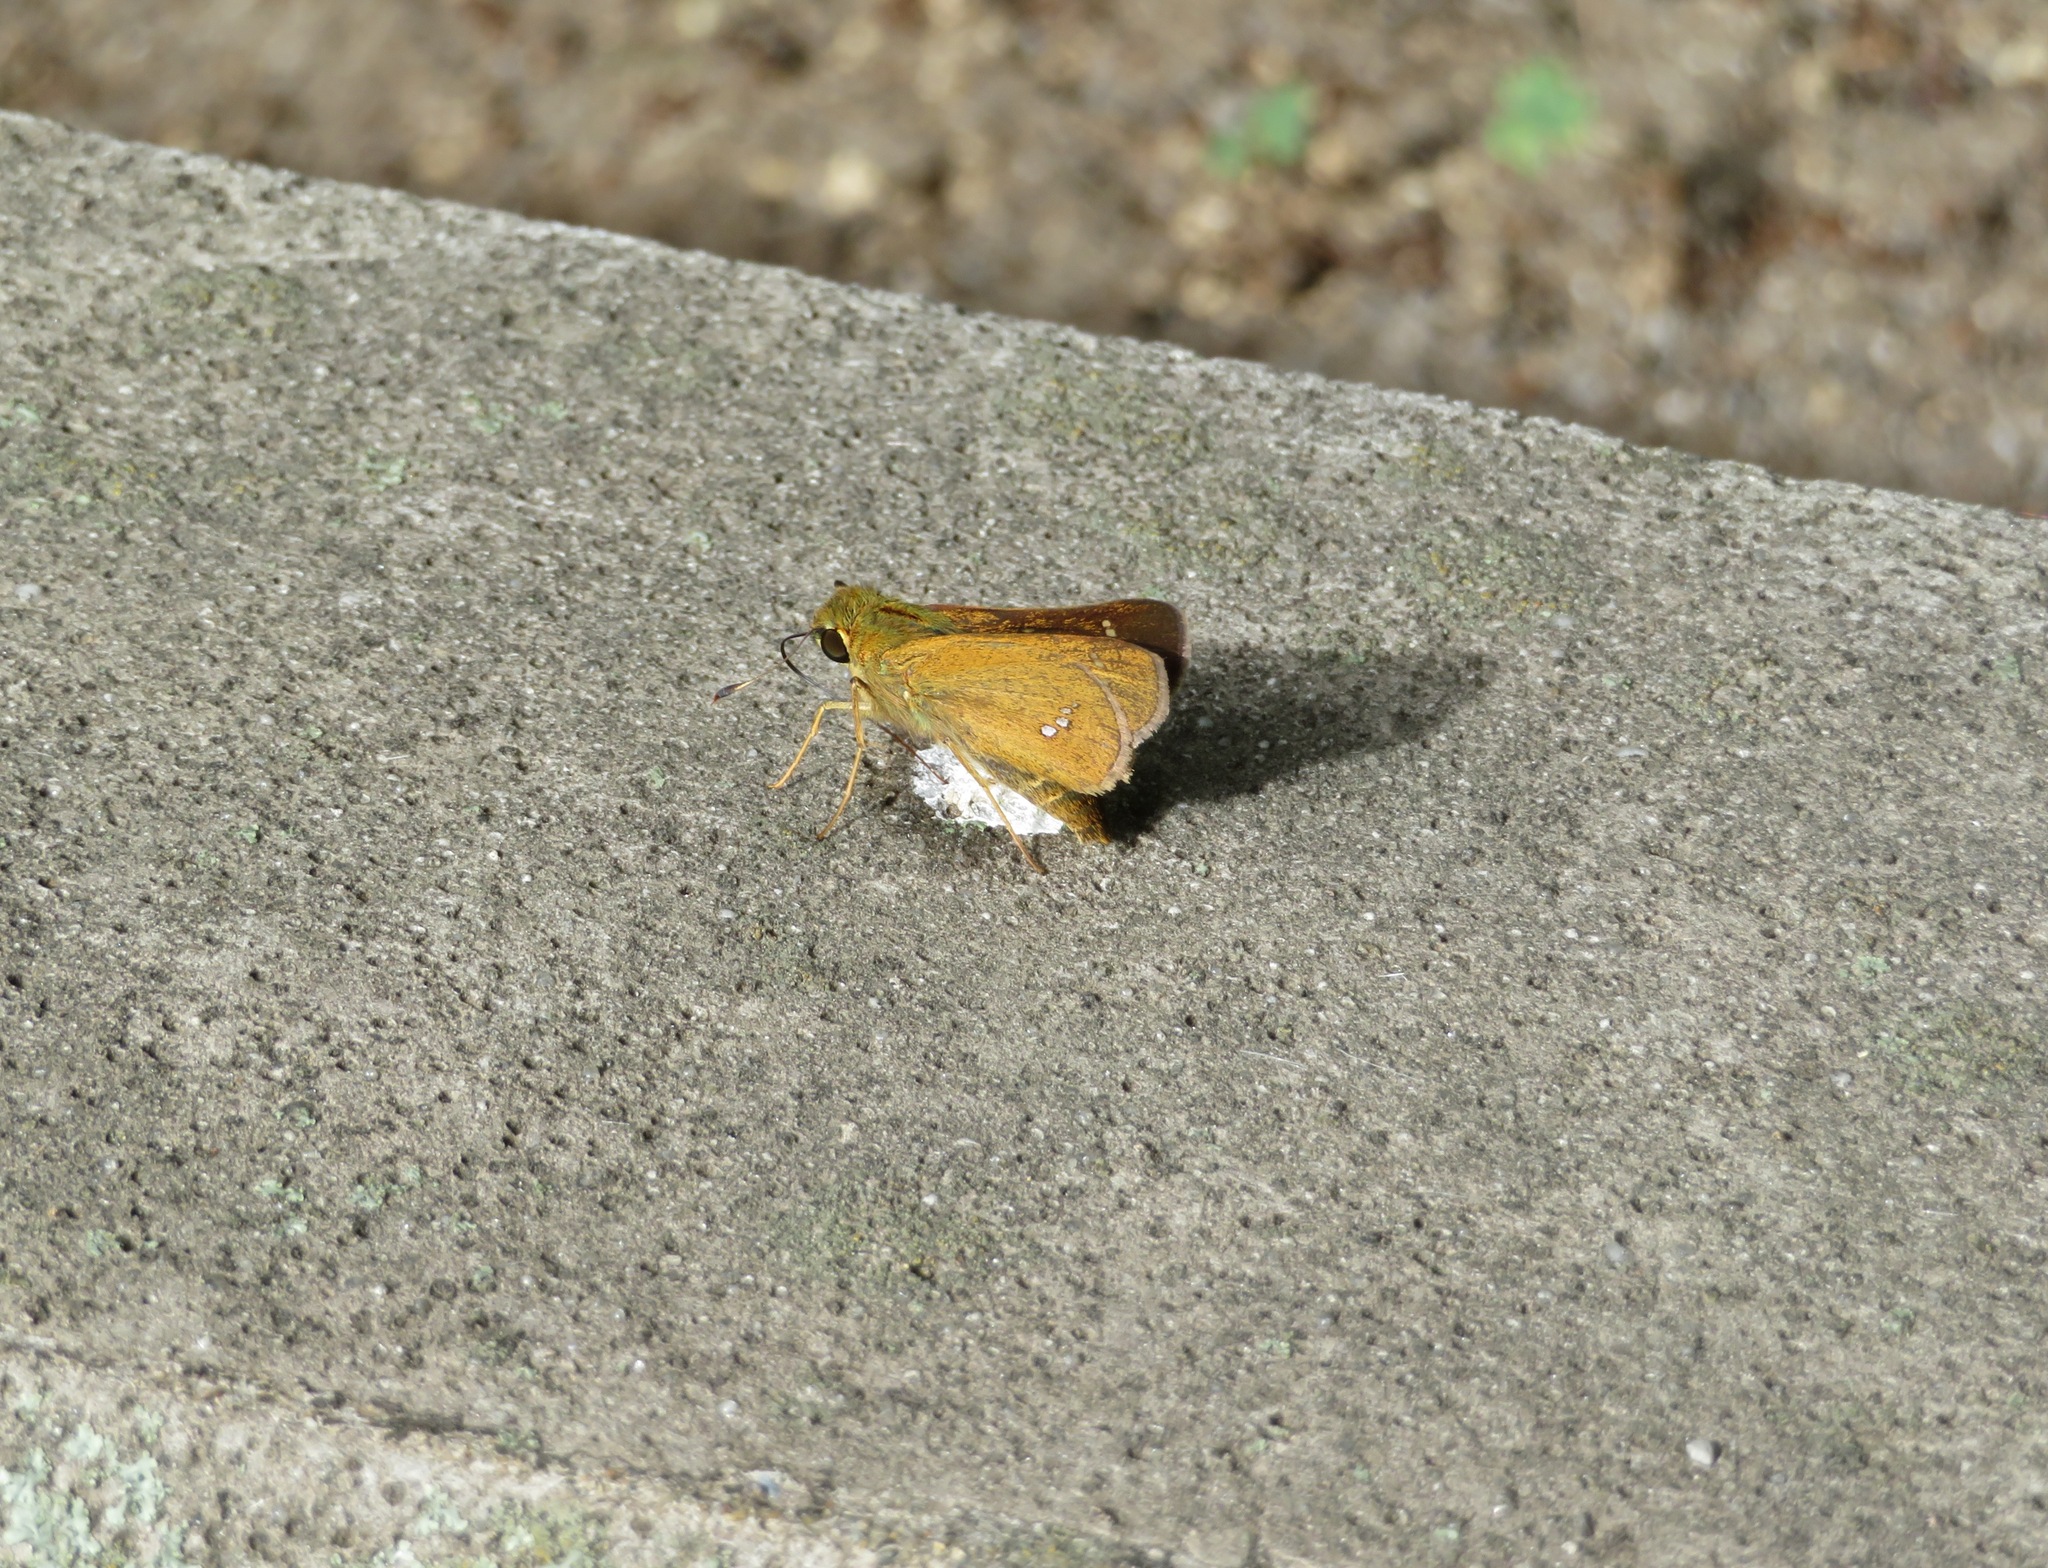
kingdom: Animalia
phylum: Arthropoda
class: Insecta
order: Lepidoptera
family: Hesperiidae
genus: Parnara
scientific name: Parnara guttatus
